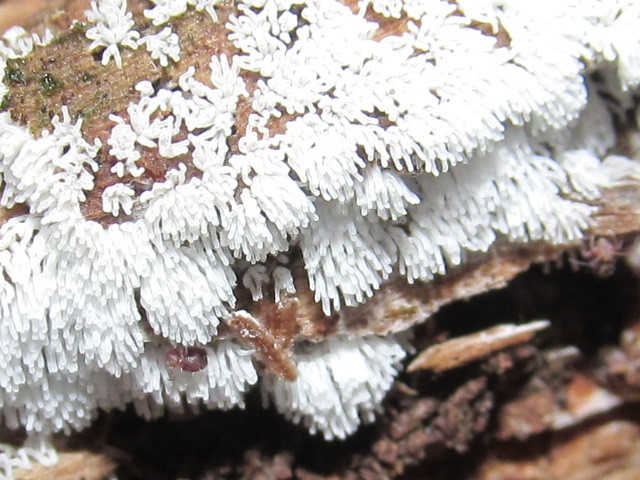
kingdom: Protozoa
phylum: Mycetozoa
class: Protosteliomycetes
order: Ceratiomyxales
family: Ceratiomyxaceae
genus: Ceratiomyxa
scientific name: Ceratiomyxa fruticulosa
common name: Honeycomb coral slime mold
